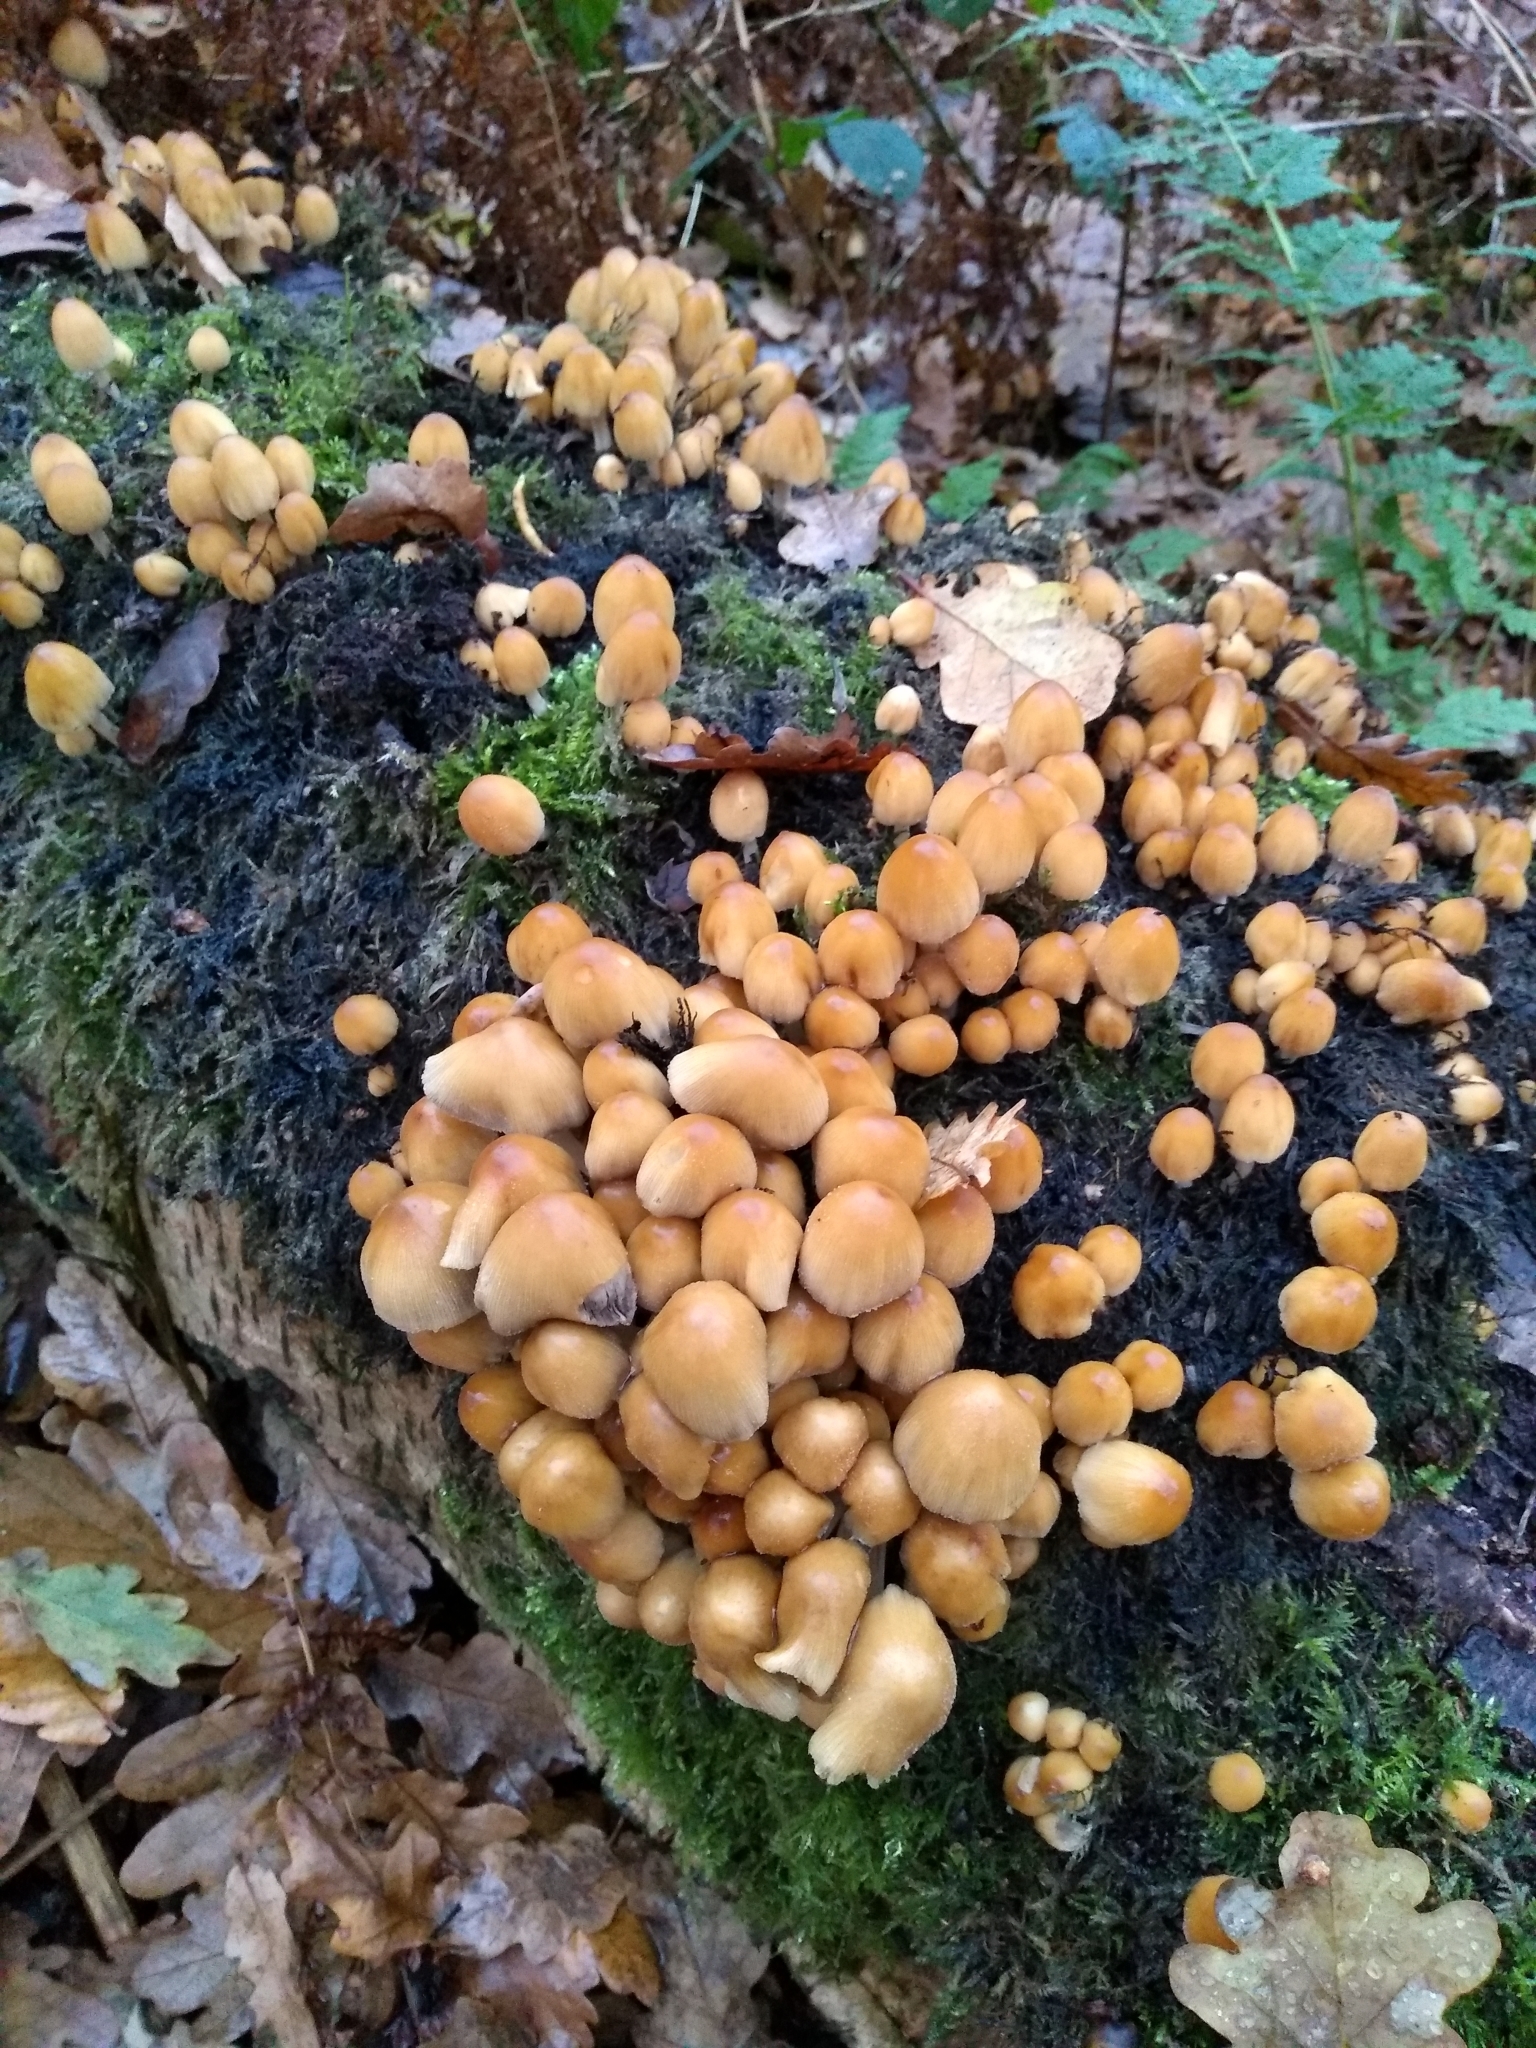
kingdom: Fungi
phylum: Basidiomycota
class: Agaricomycetes
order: Agaricales
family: Psathyrellaceae
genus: Coprinellus
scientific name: Coprinellus micaceus
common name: Glistening ink-cap
